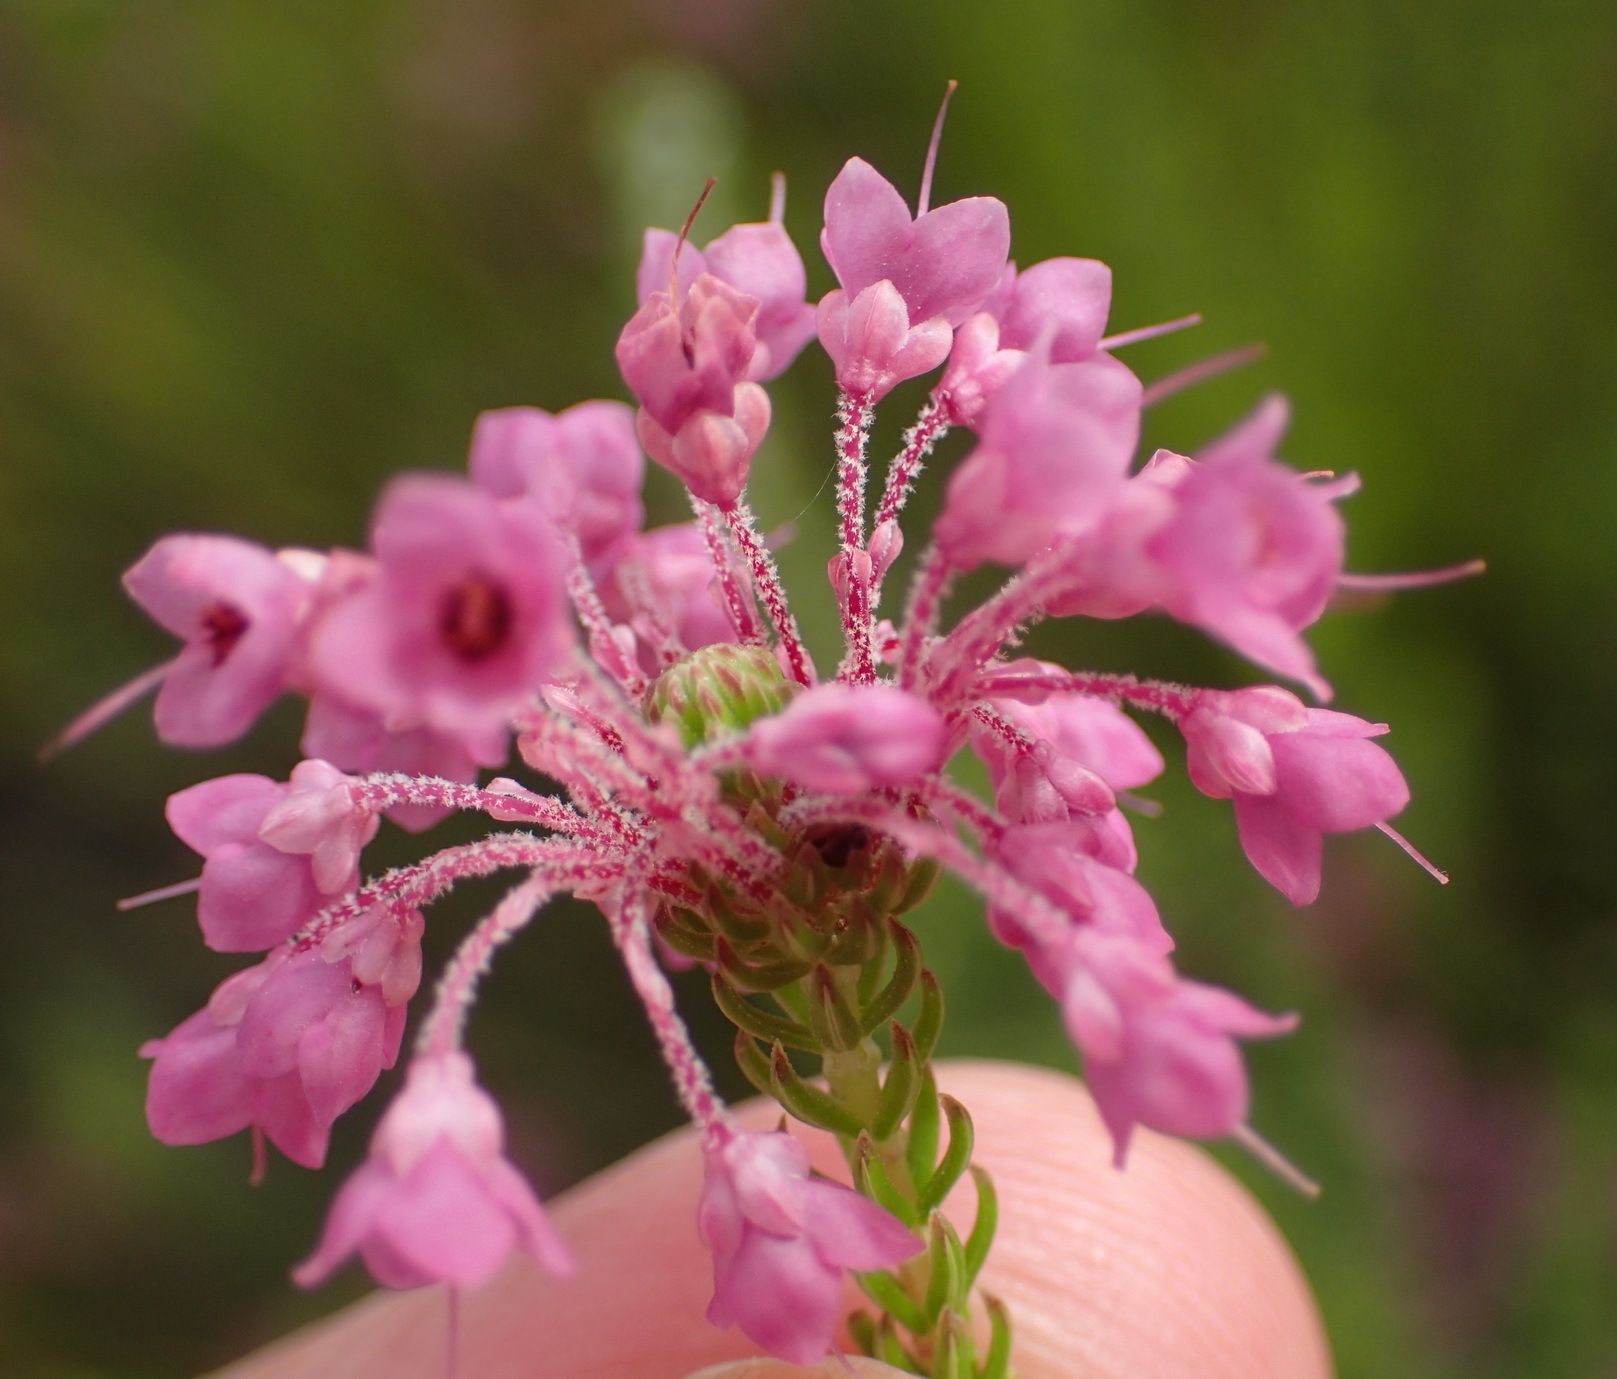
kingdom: Plantae
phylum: Tracheophyta
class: Magnoliopsida
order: Ericales
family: Ericaceae
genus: Erica
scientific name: Erica seriphiifolia
